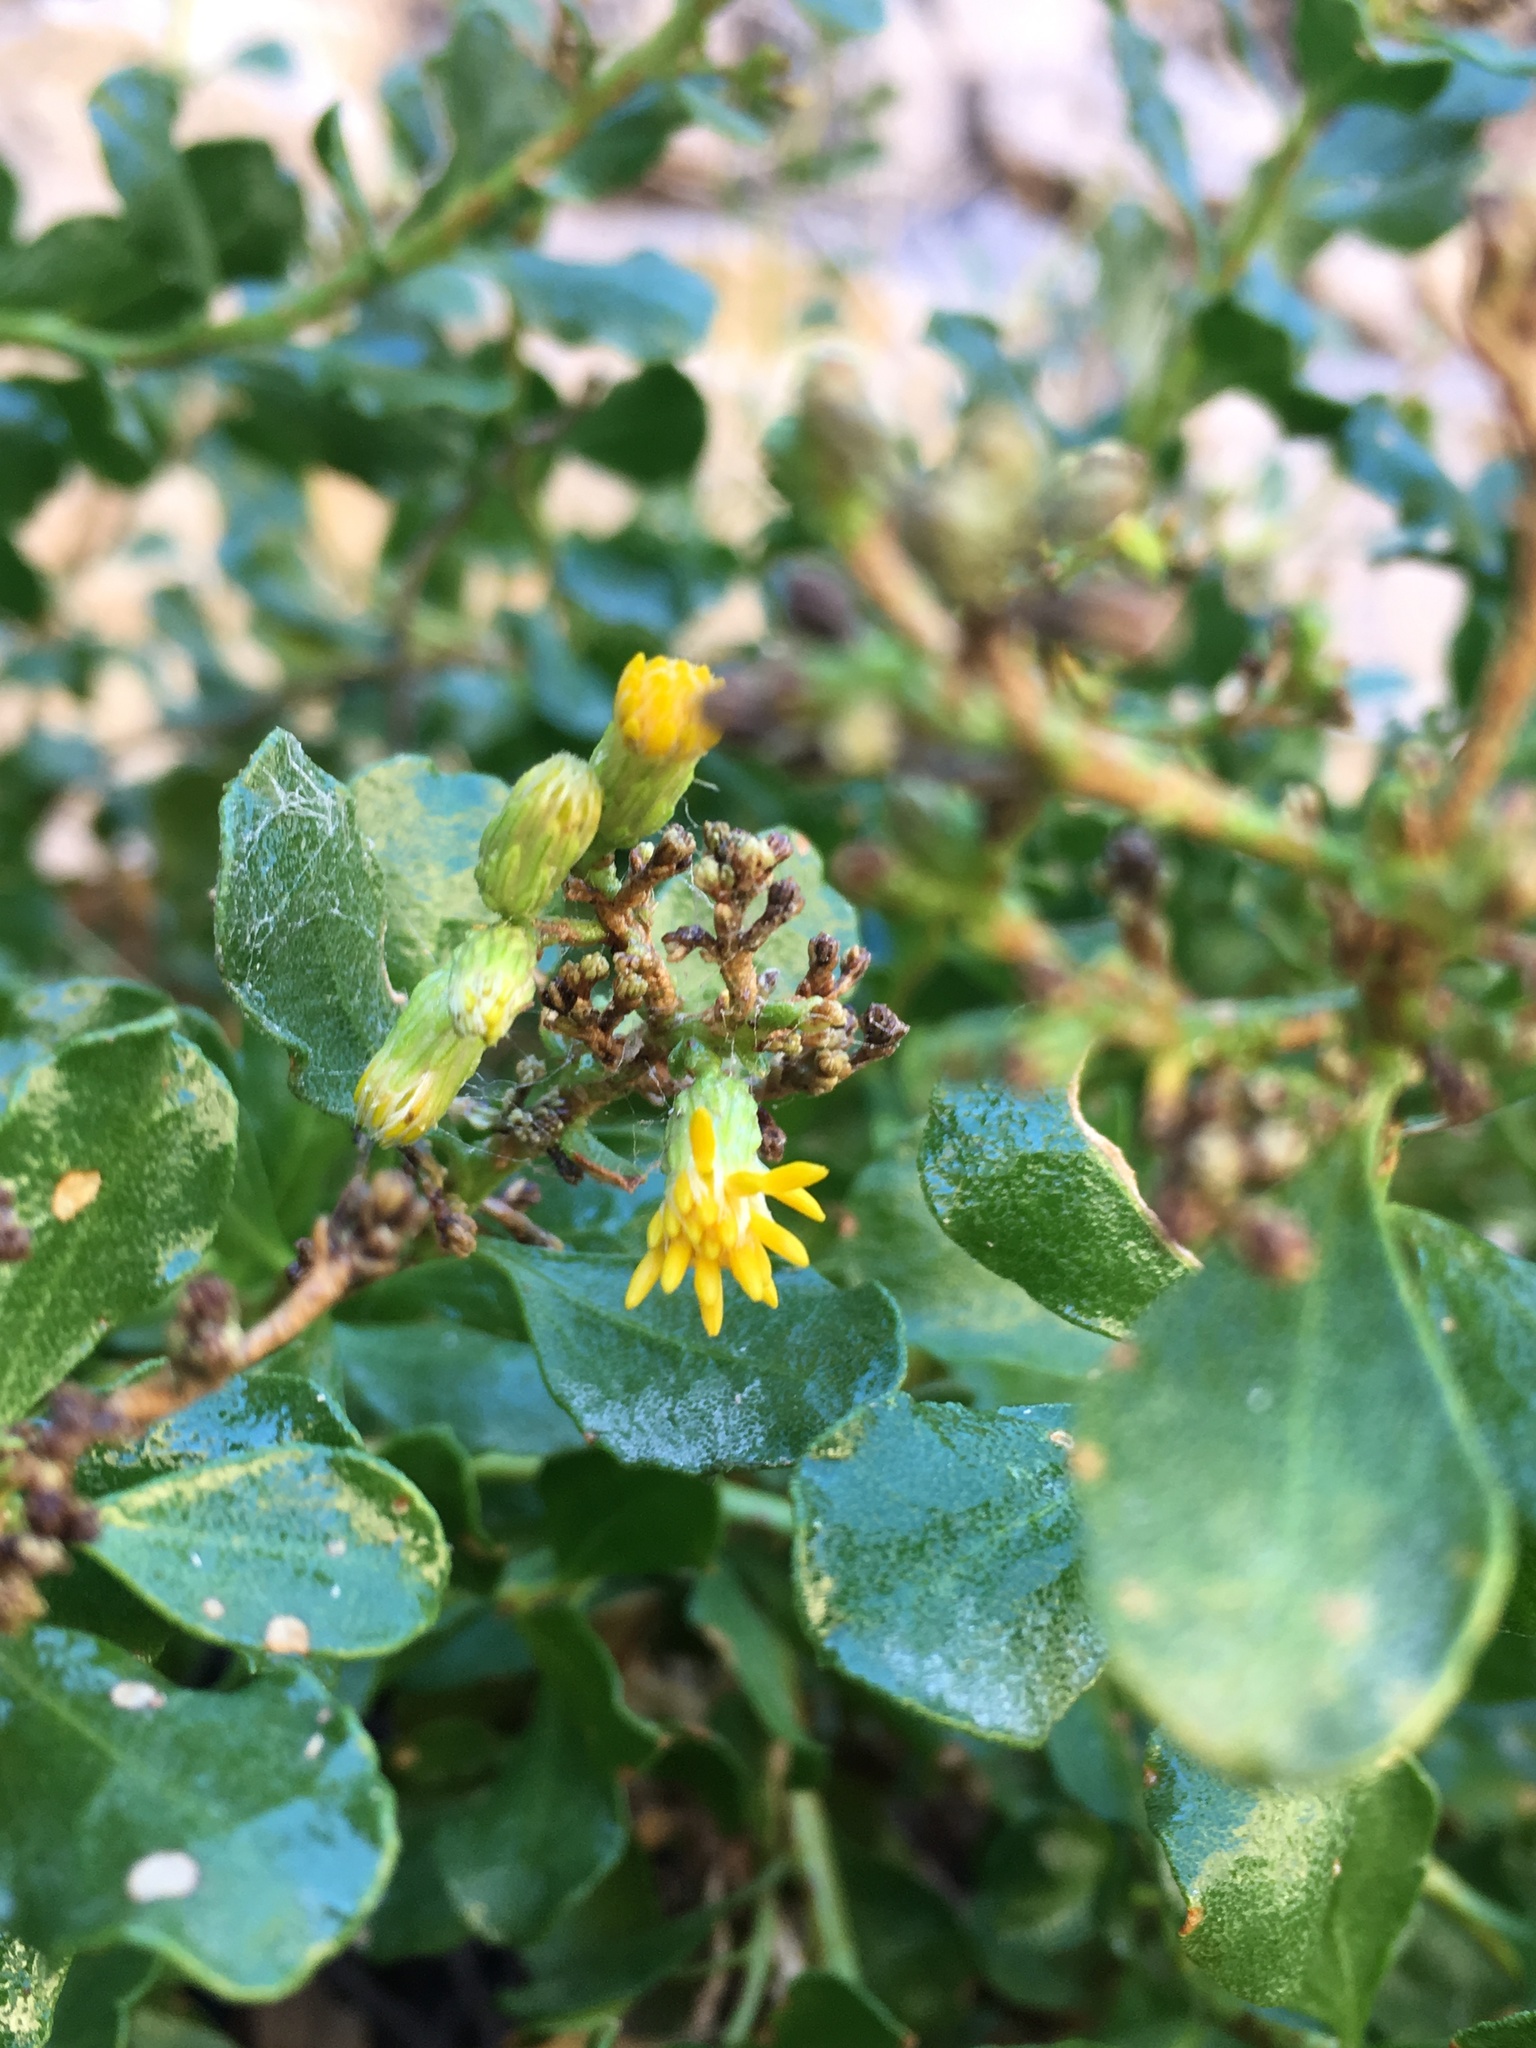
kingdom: Plantae
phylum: Tracheophyta
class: Magnoliopsida
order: Asterales
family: Asteraceae
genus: Ericameria
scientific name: Ericameria cuneata
